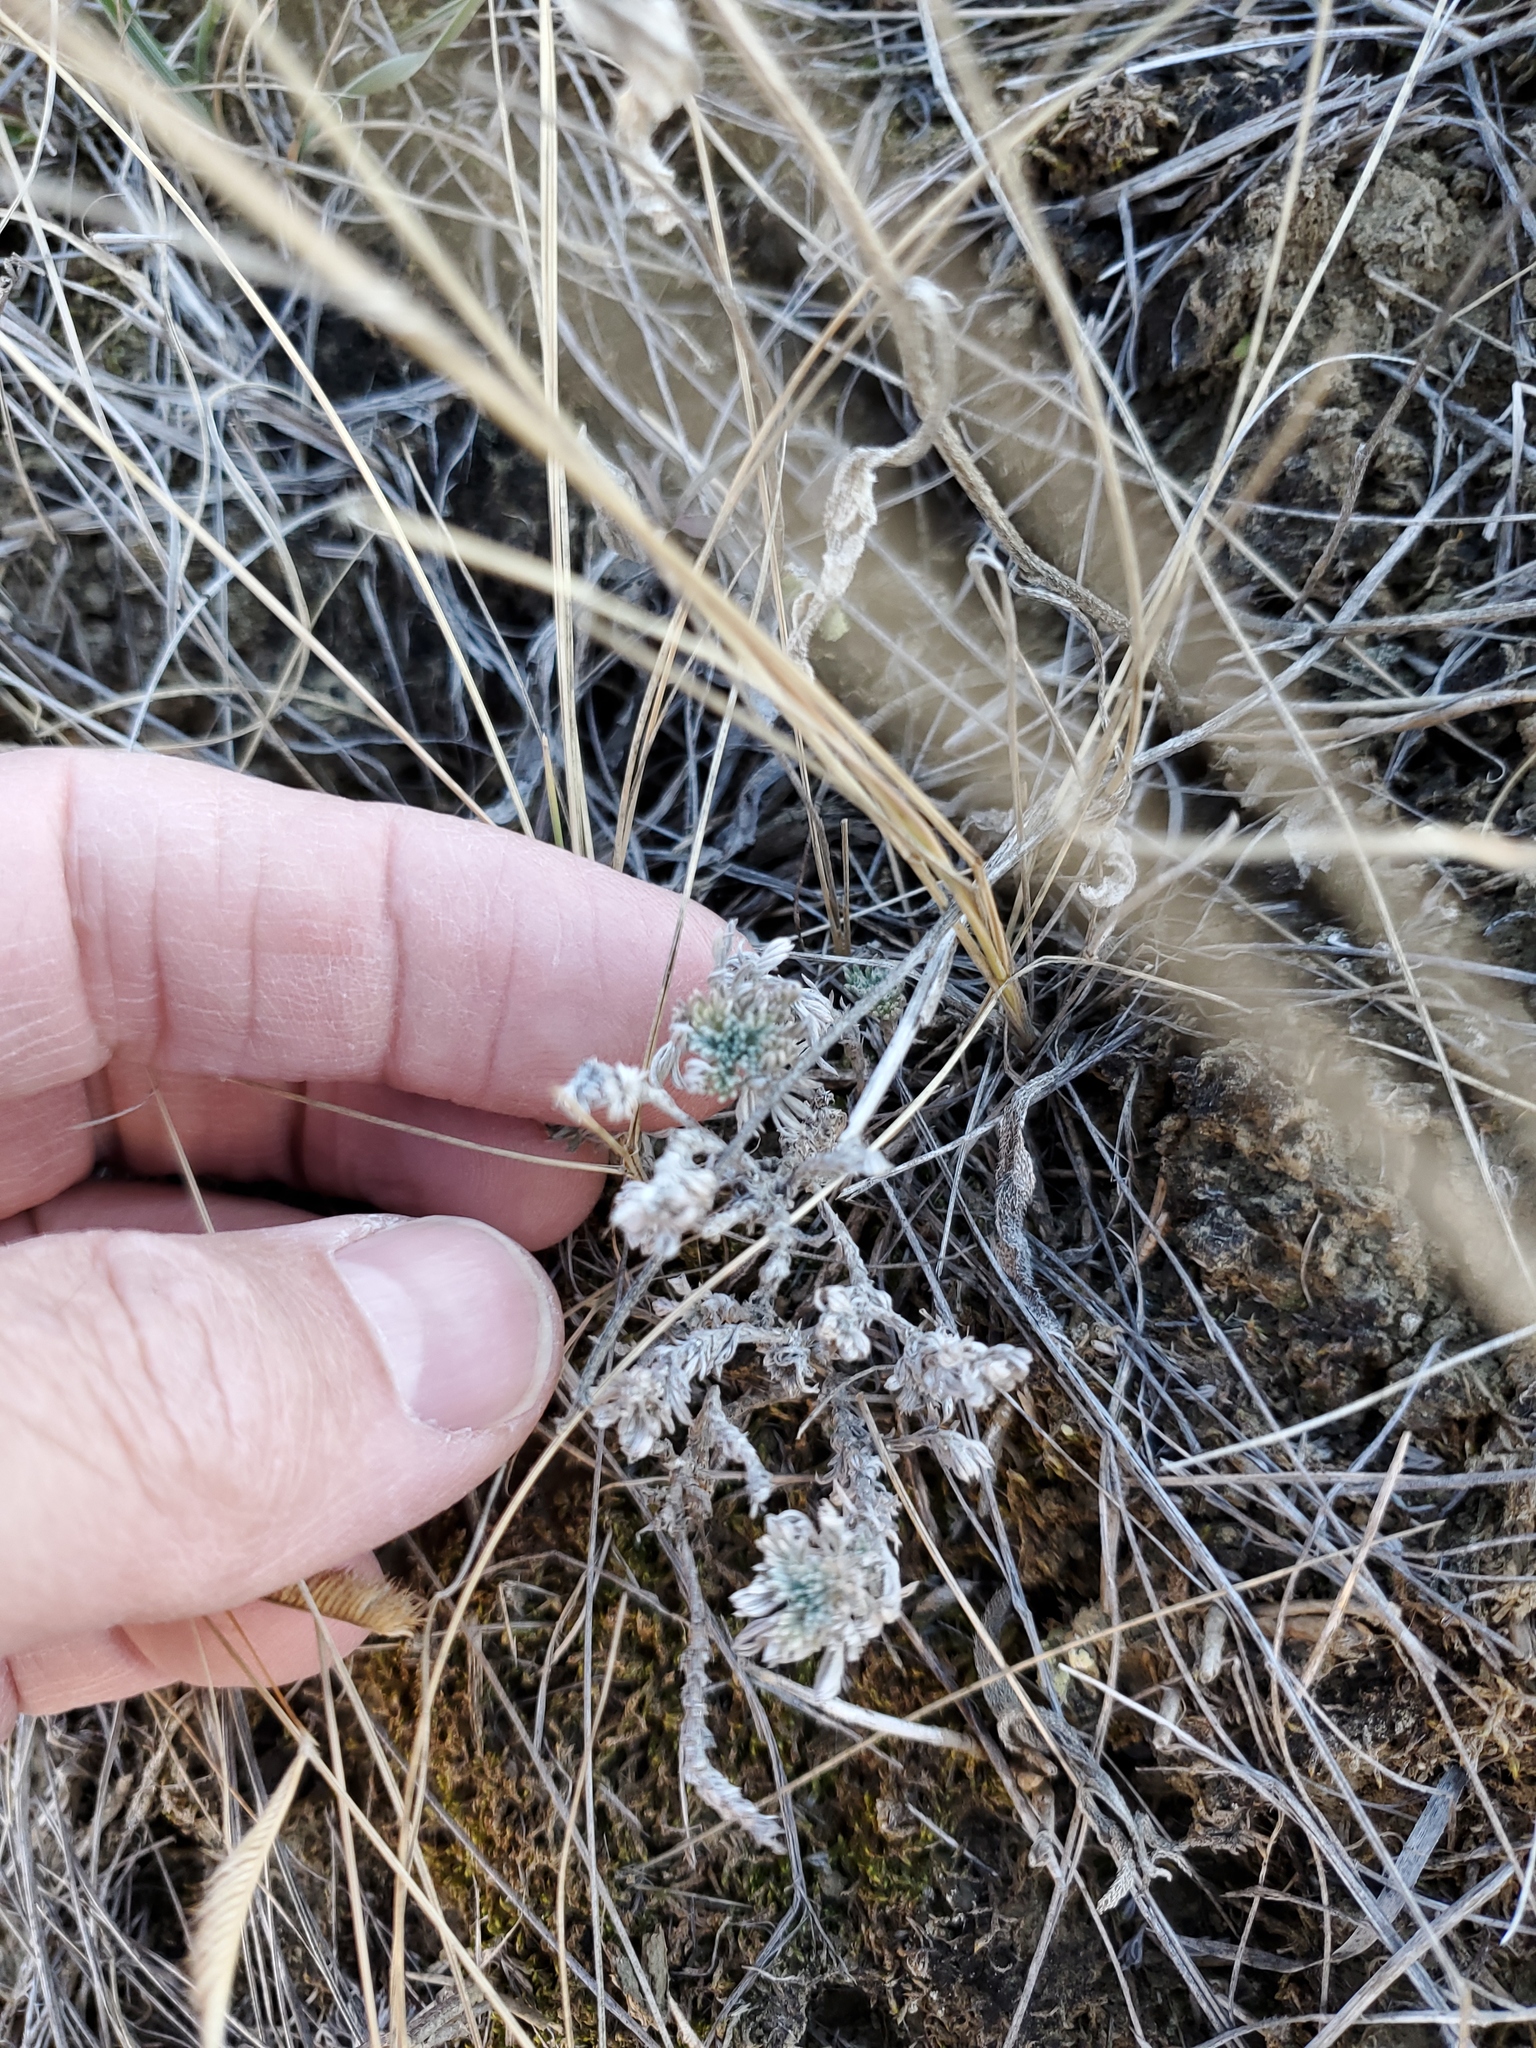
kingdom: Plantae
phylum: Tracheophyta
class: Magnoliopsida
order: Asterales
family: Asteraceae
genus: Artemisia
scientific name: Artemisia frigida
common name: Prairie sagewort
